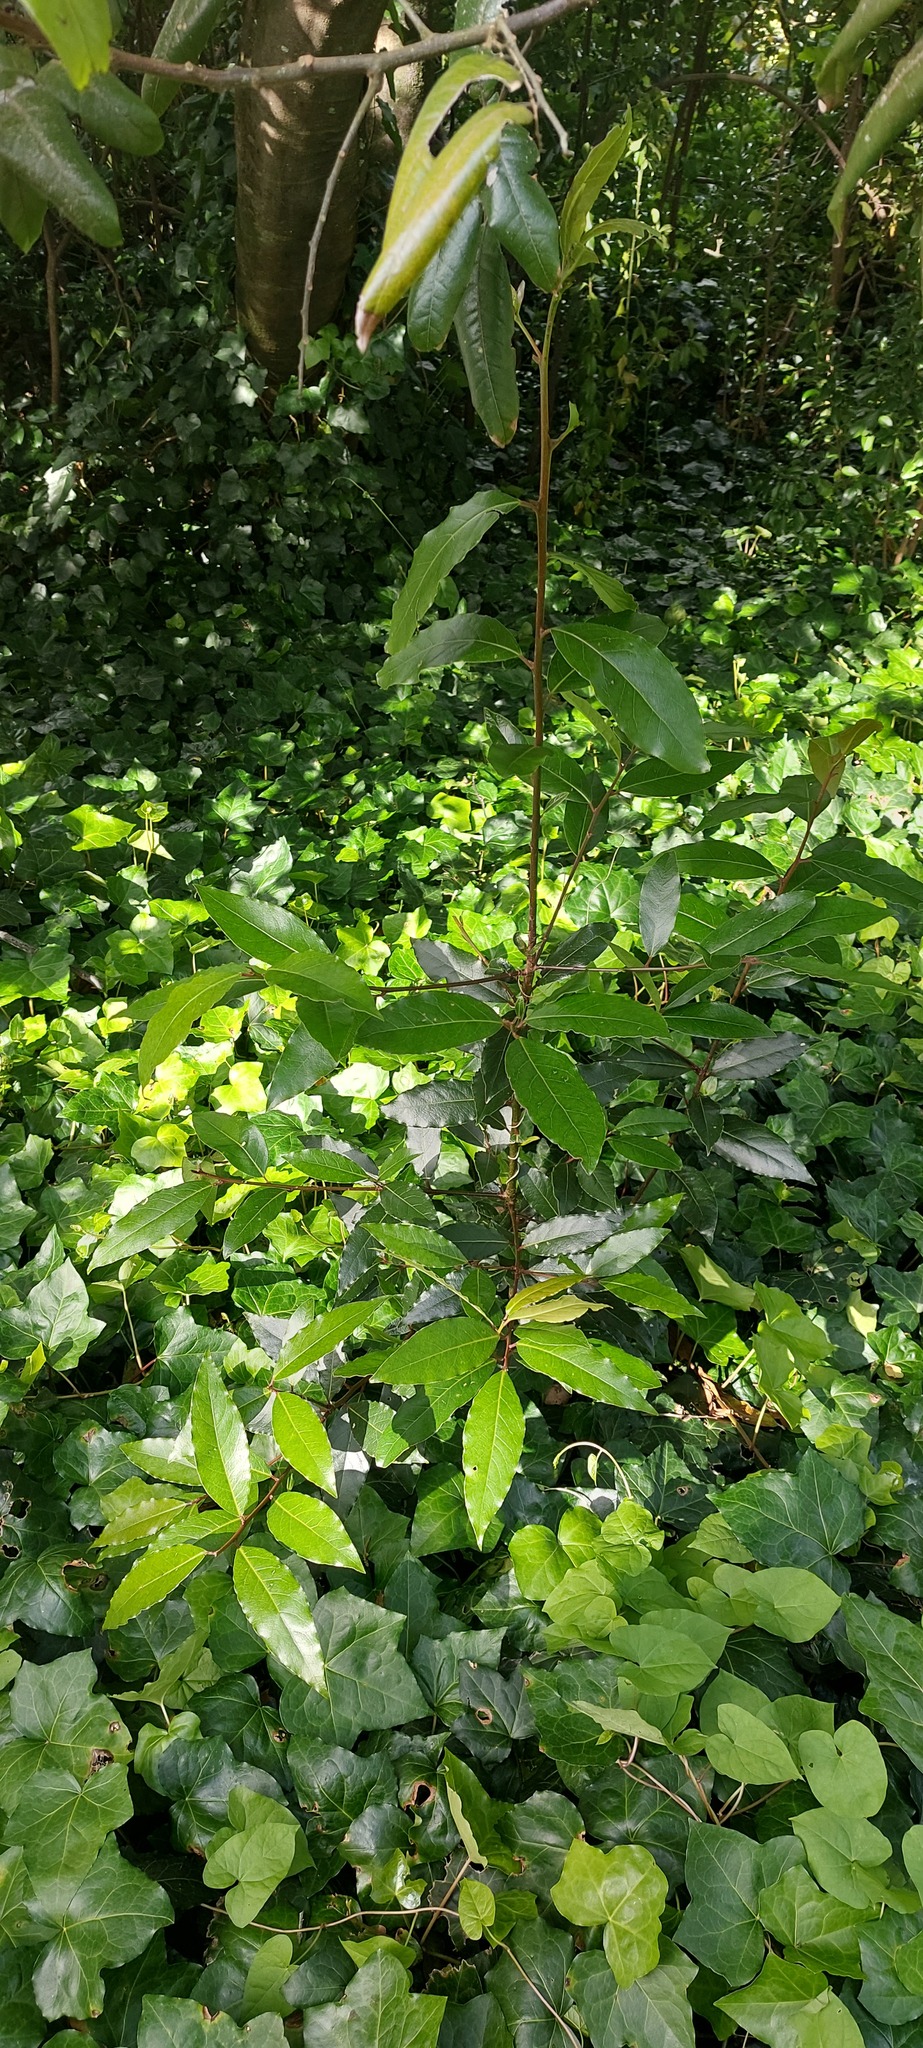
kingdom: Plantae
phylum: Tracheophyta
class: Magnoliopsida
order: Laurales
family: Lauraceae
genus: Laurus
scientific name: Laurus nobilis
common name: Bay
